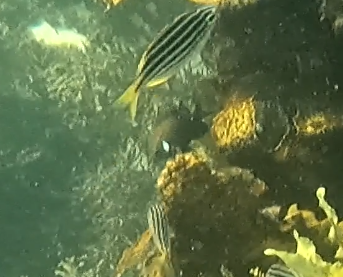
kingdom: Animalia
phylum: Chordata
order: Perciformes
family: Pomacentridae
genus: Parma
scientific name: Parma microlepis
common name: White-ear
